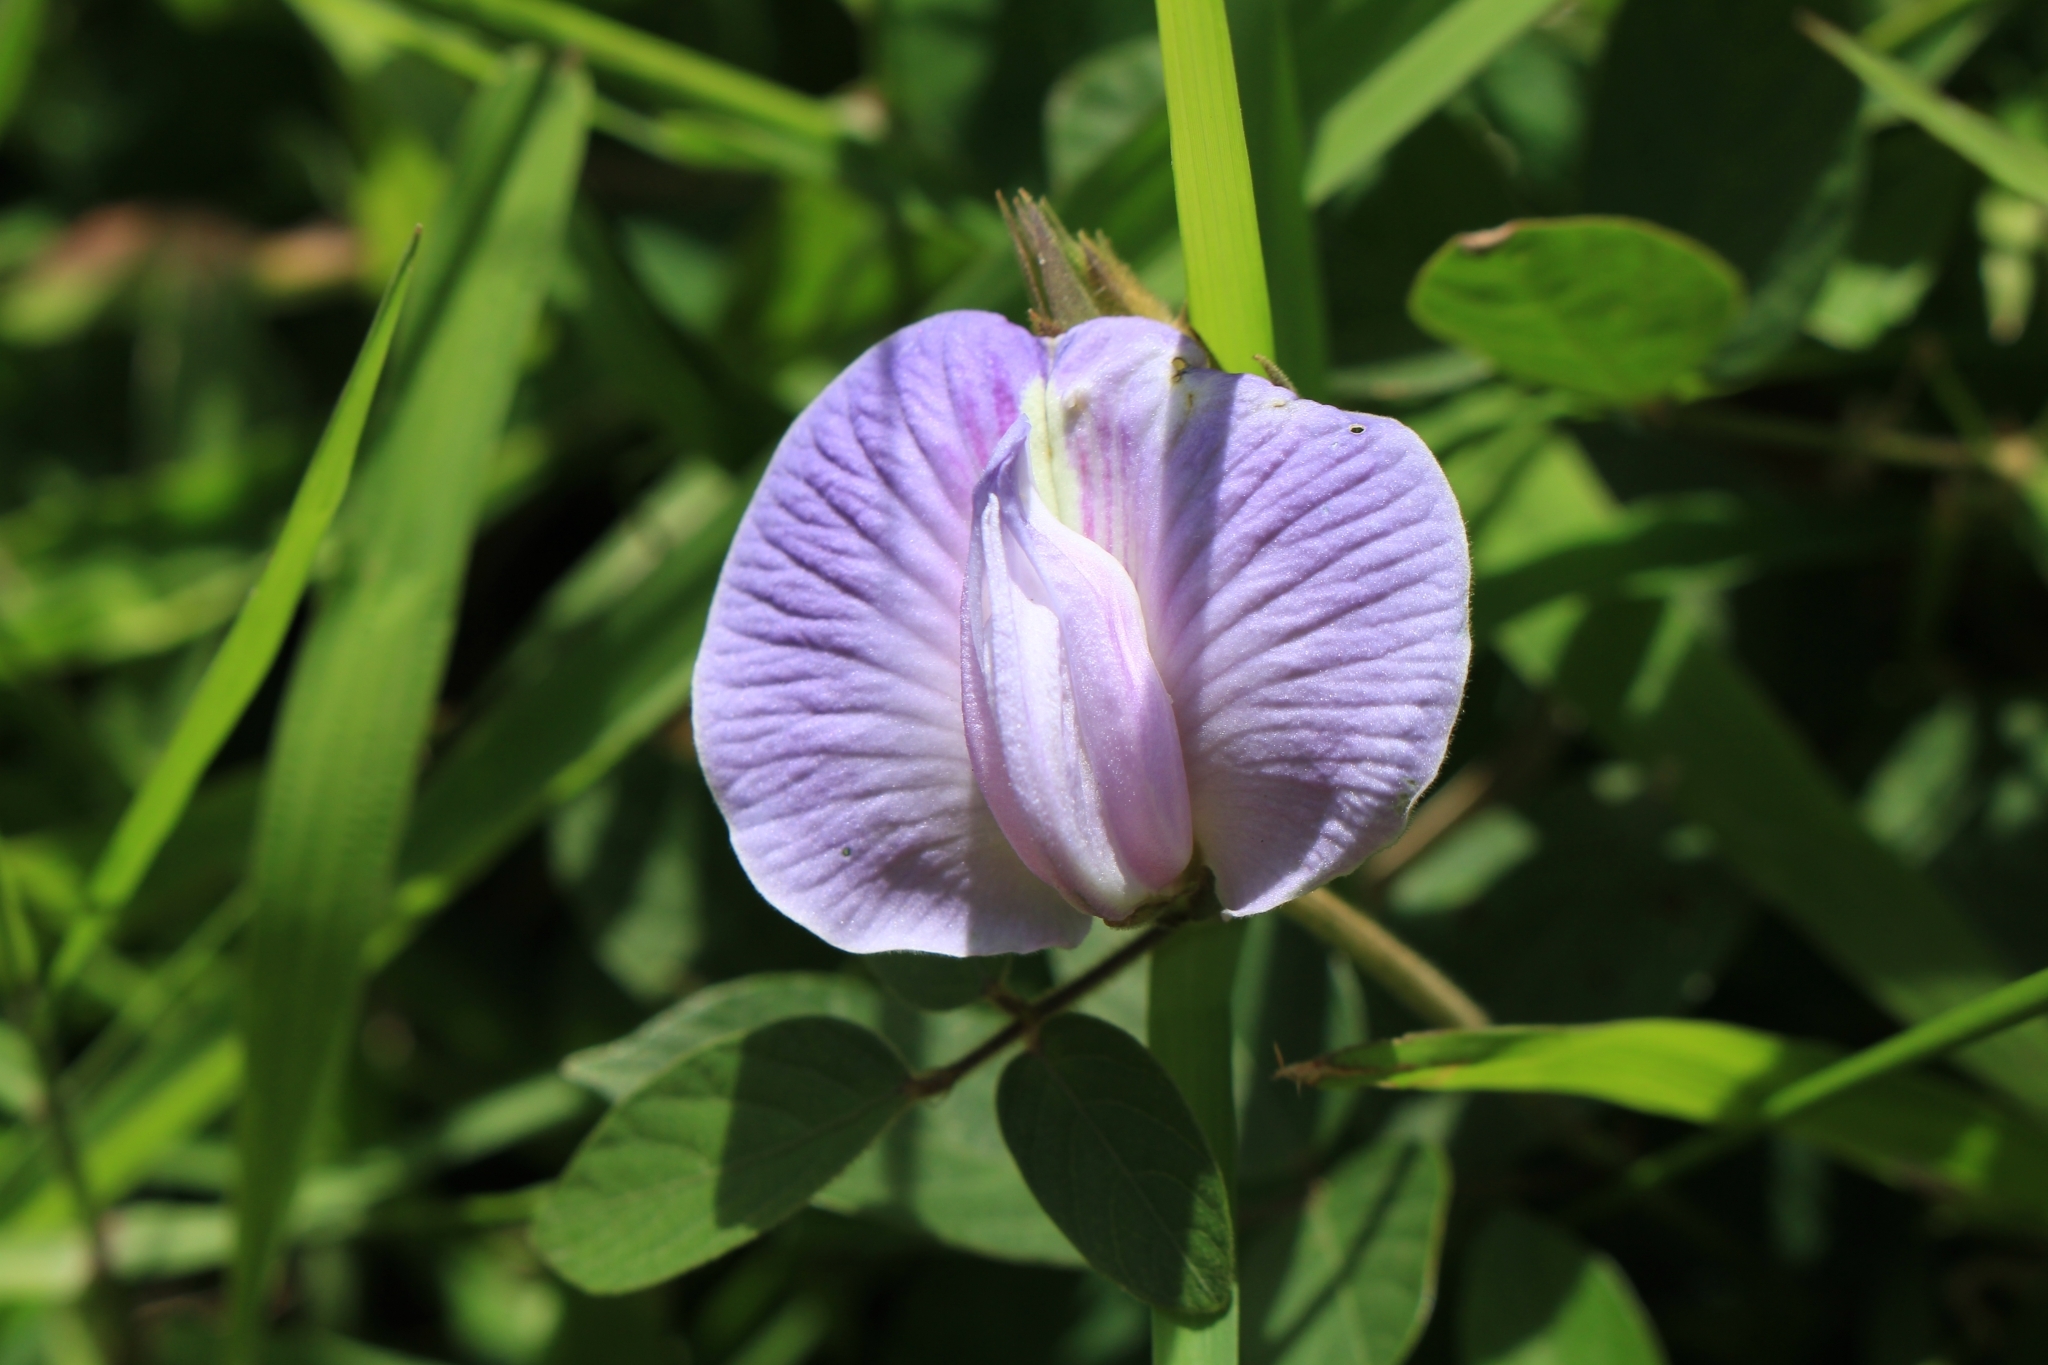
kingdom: Plantae
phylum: Tracheophyta
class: Magnoliopsida
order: Fabales
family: Fabaceae
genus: Centrosema
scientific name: Centrosema pubescens
